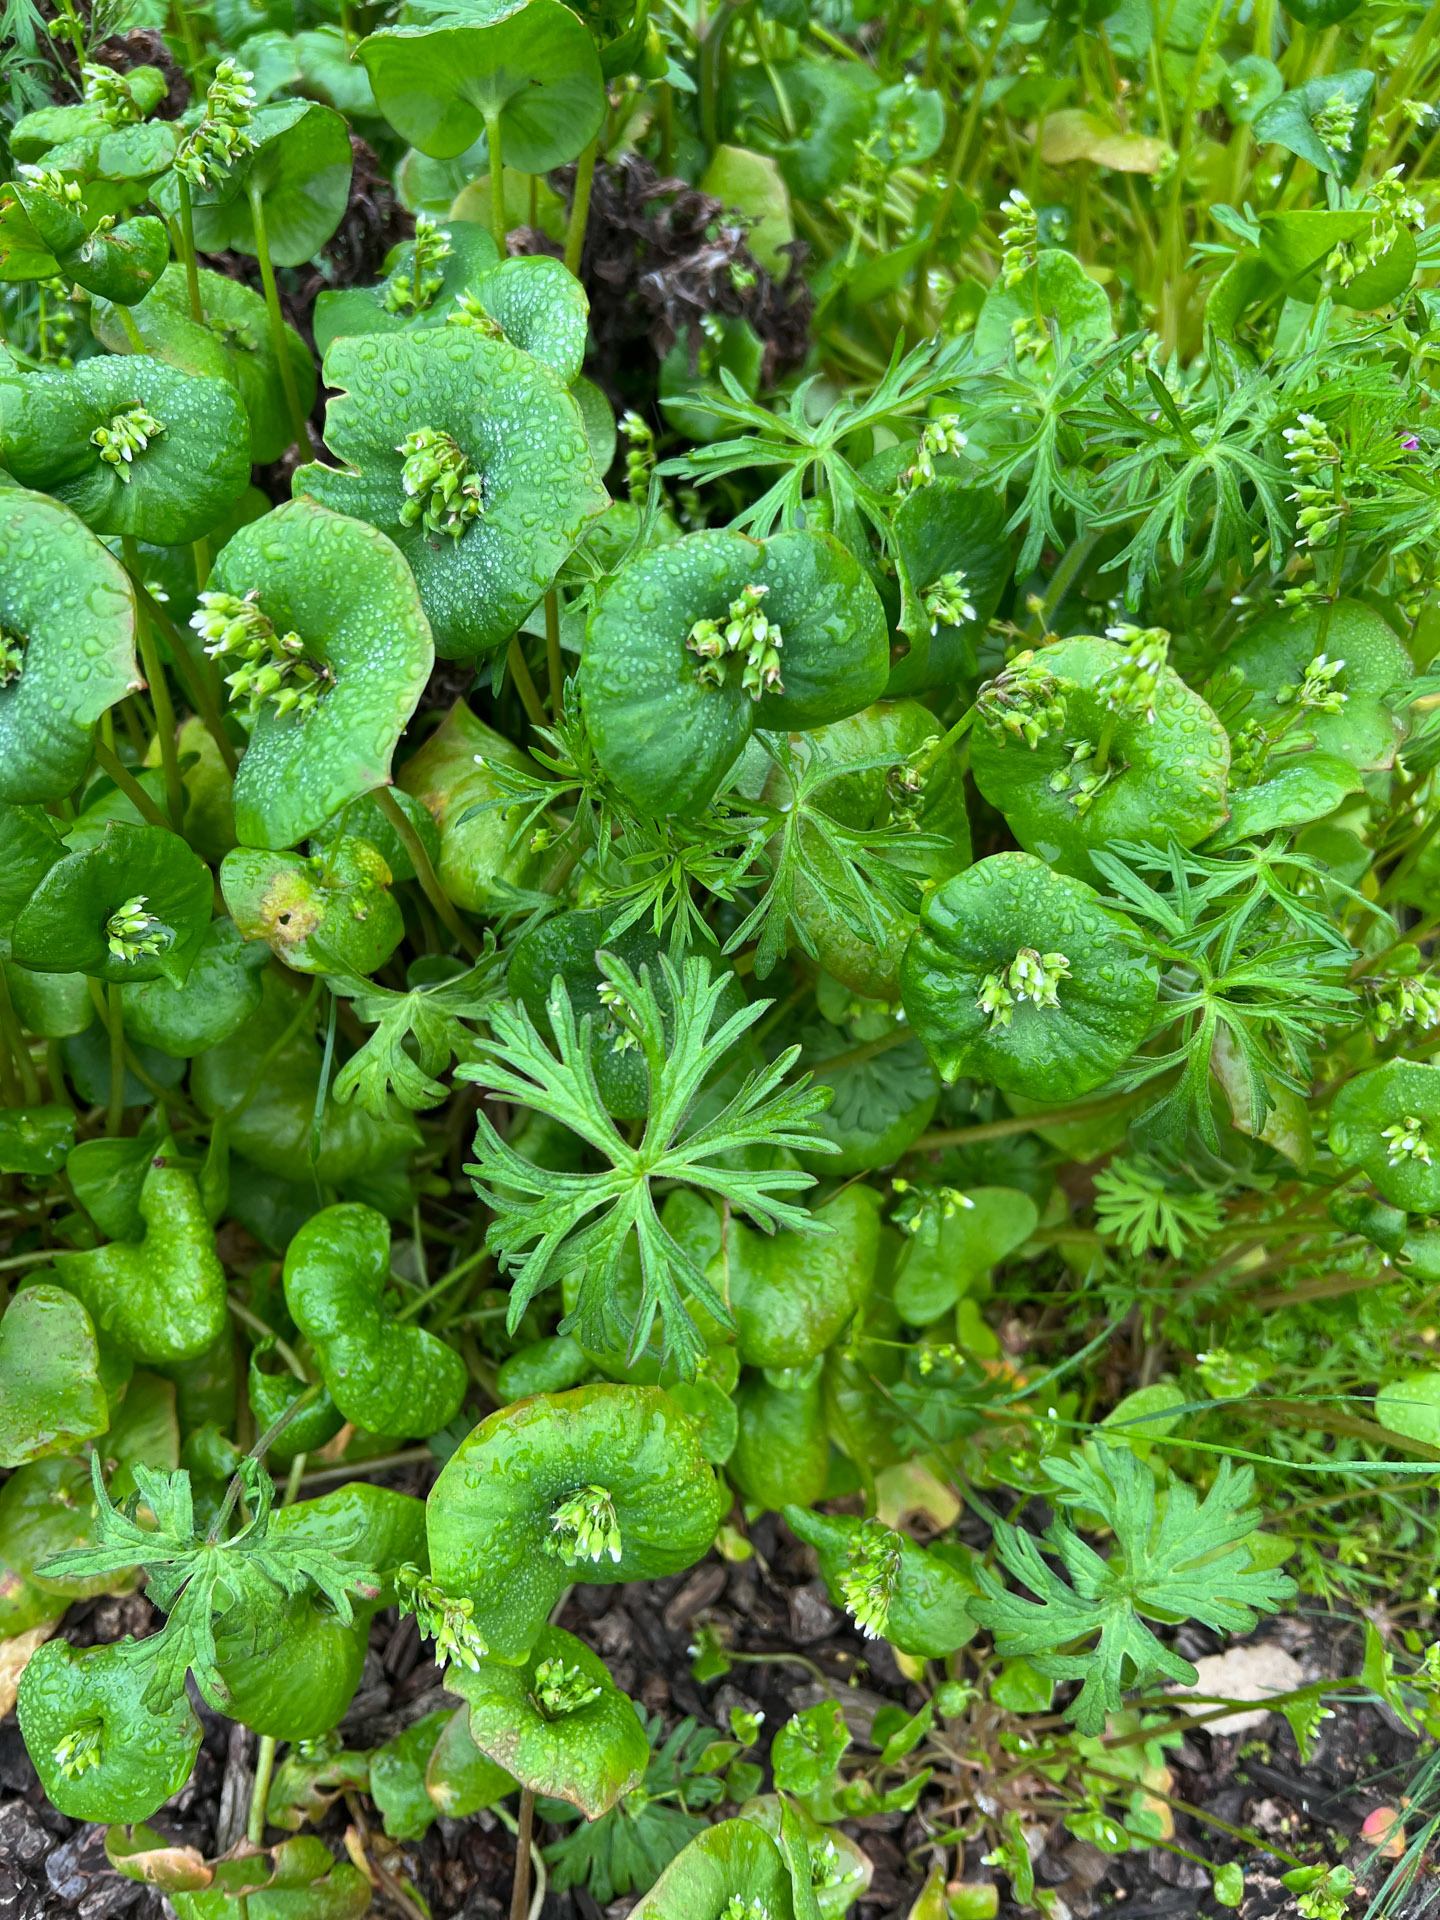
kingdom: Plantae
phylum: Tracheophyta
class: Magnoliopsida
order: Geraniales
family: Geraniaceae
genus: Geranium
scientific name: Geranium
